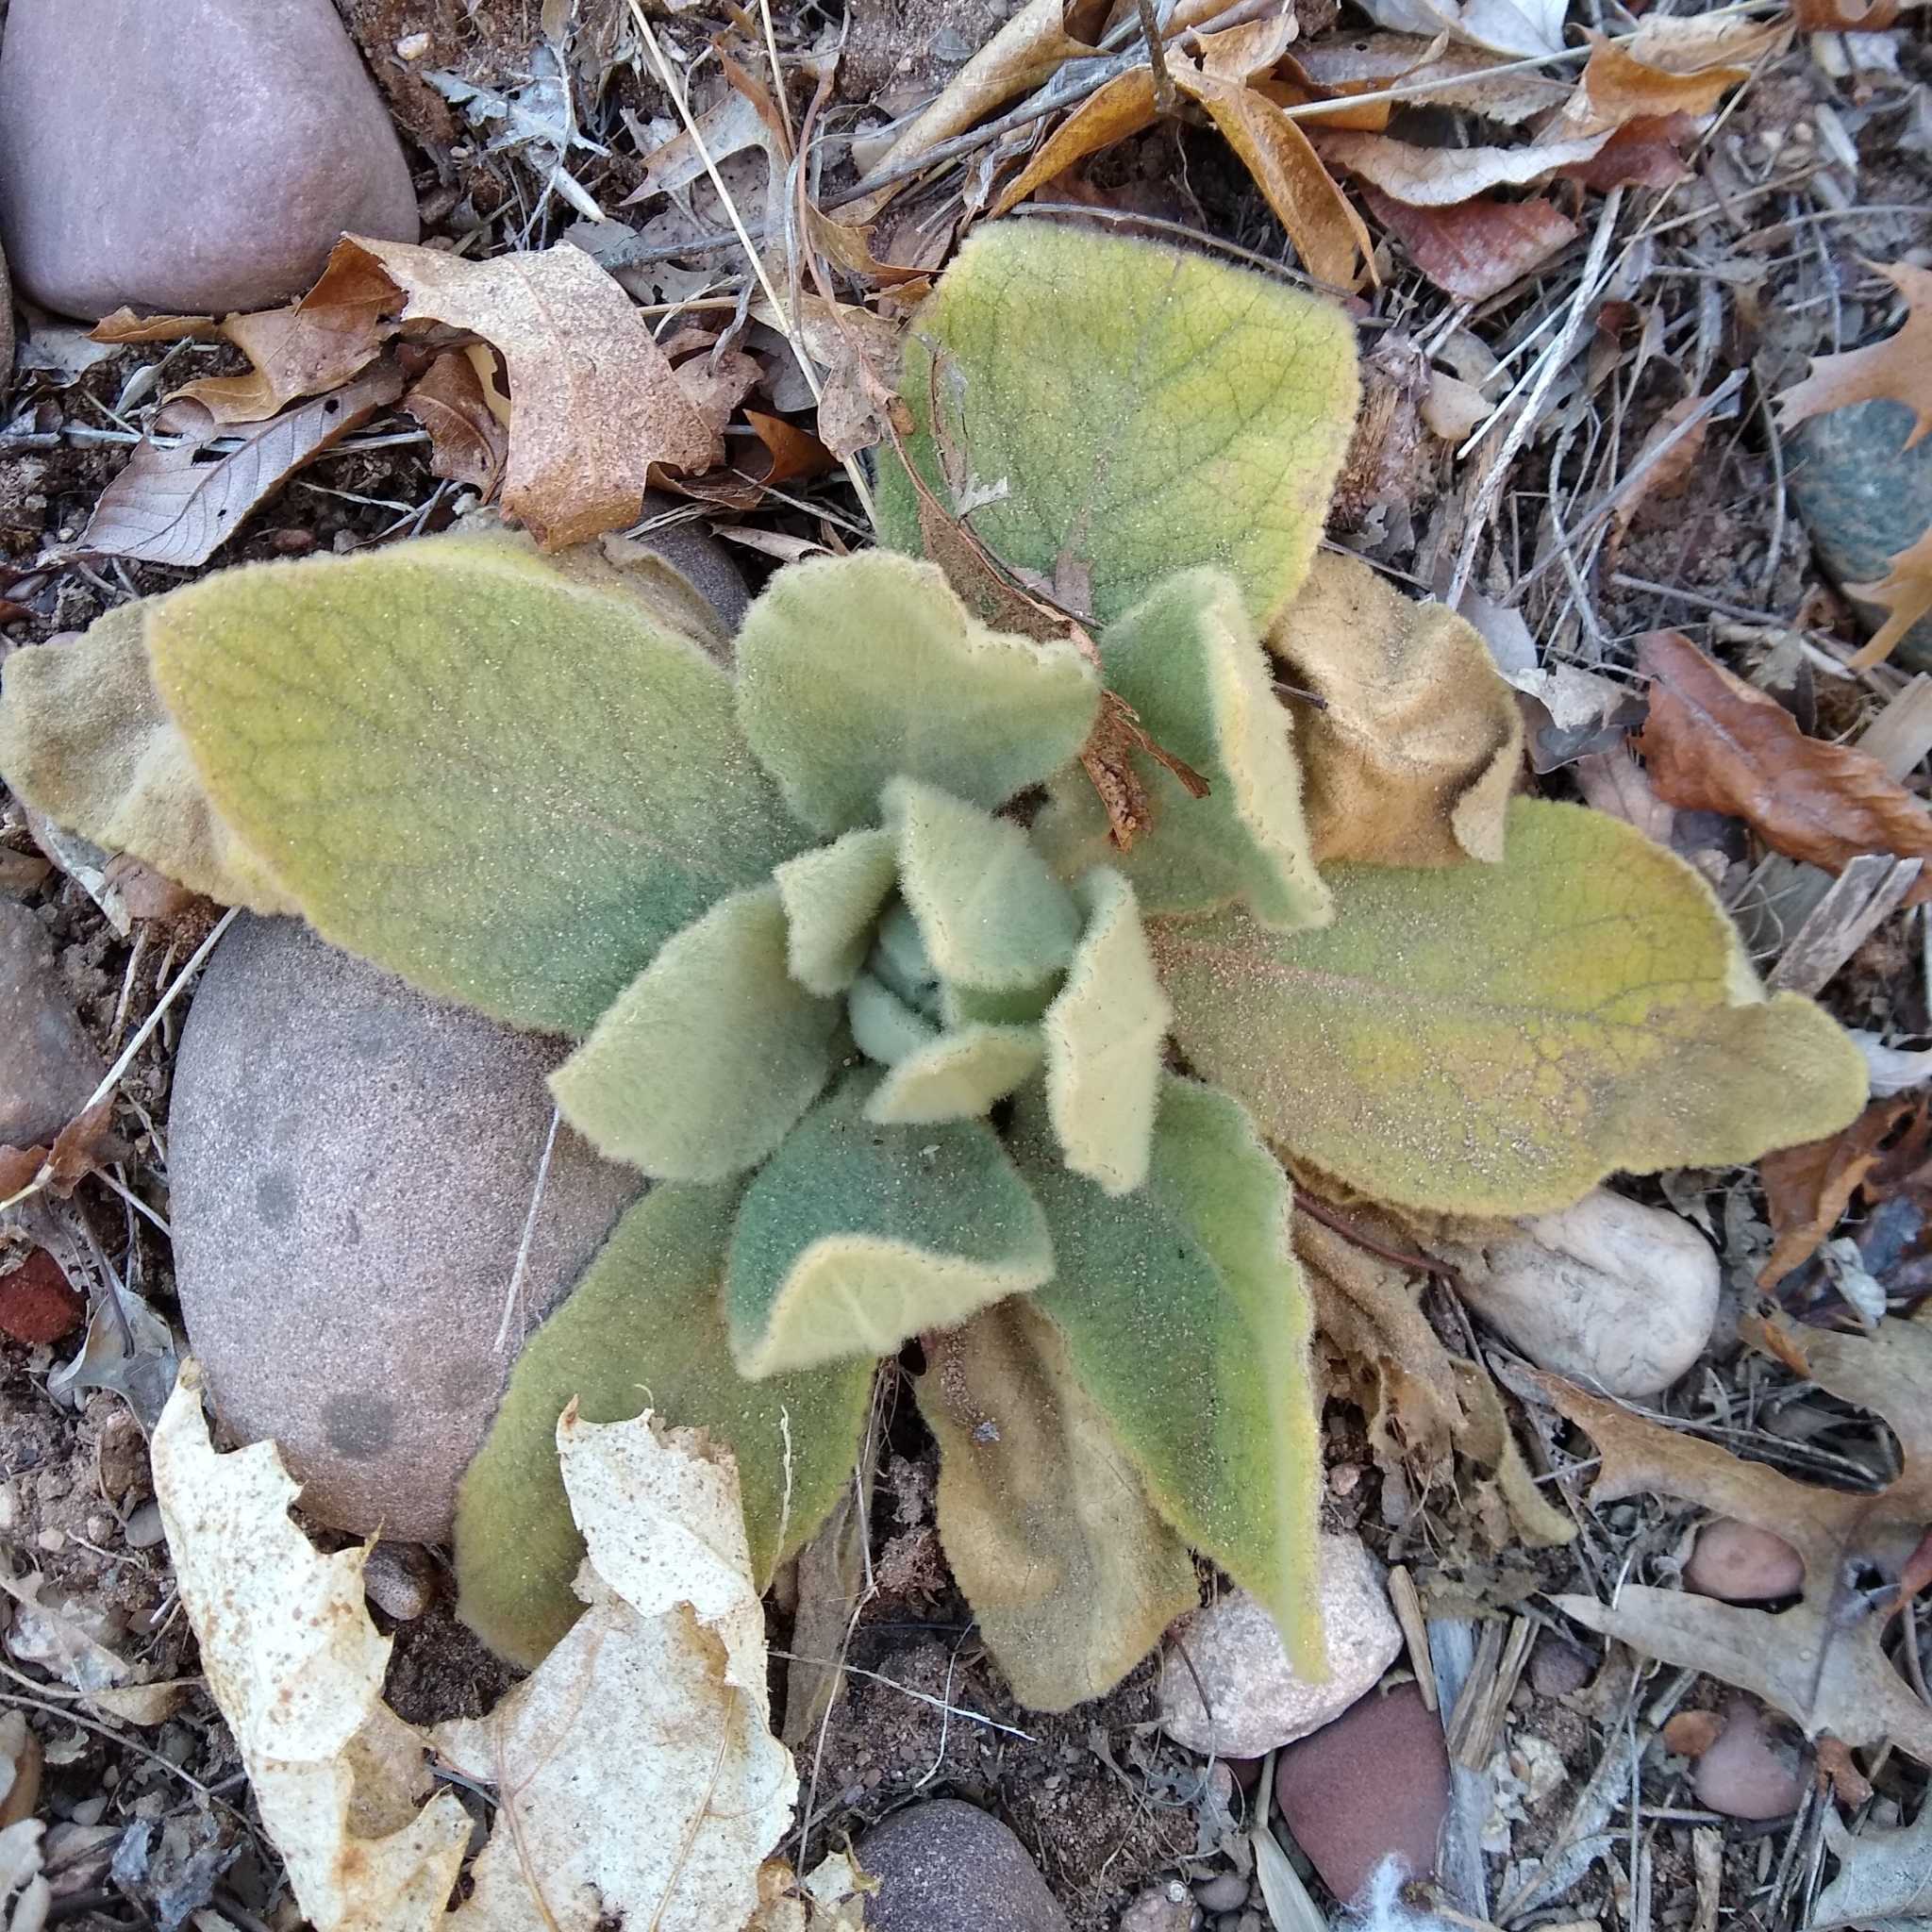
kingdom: Plantae
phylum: Tracheophyta
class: Magnoliopsida
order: Lamiales
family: Scrophulariaceae
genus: Verbascum
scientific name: Verbascum thapsus
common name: Common mullein
